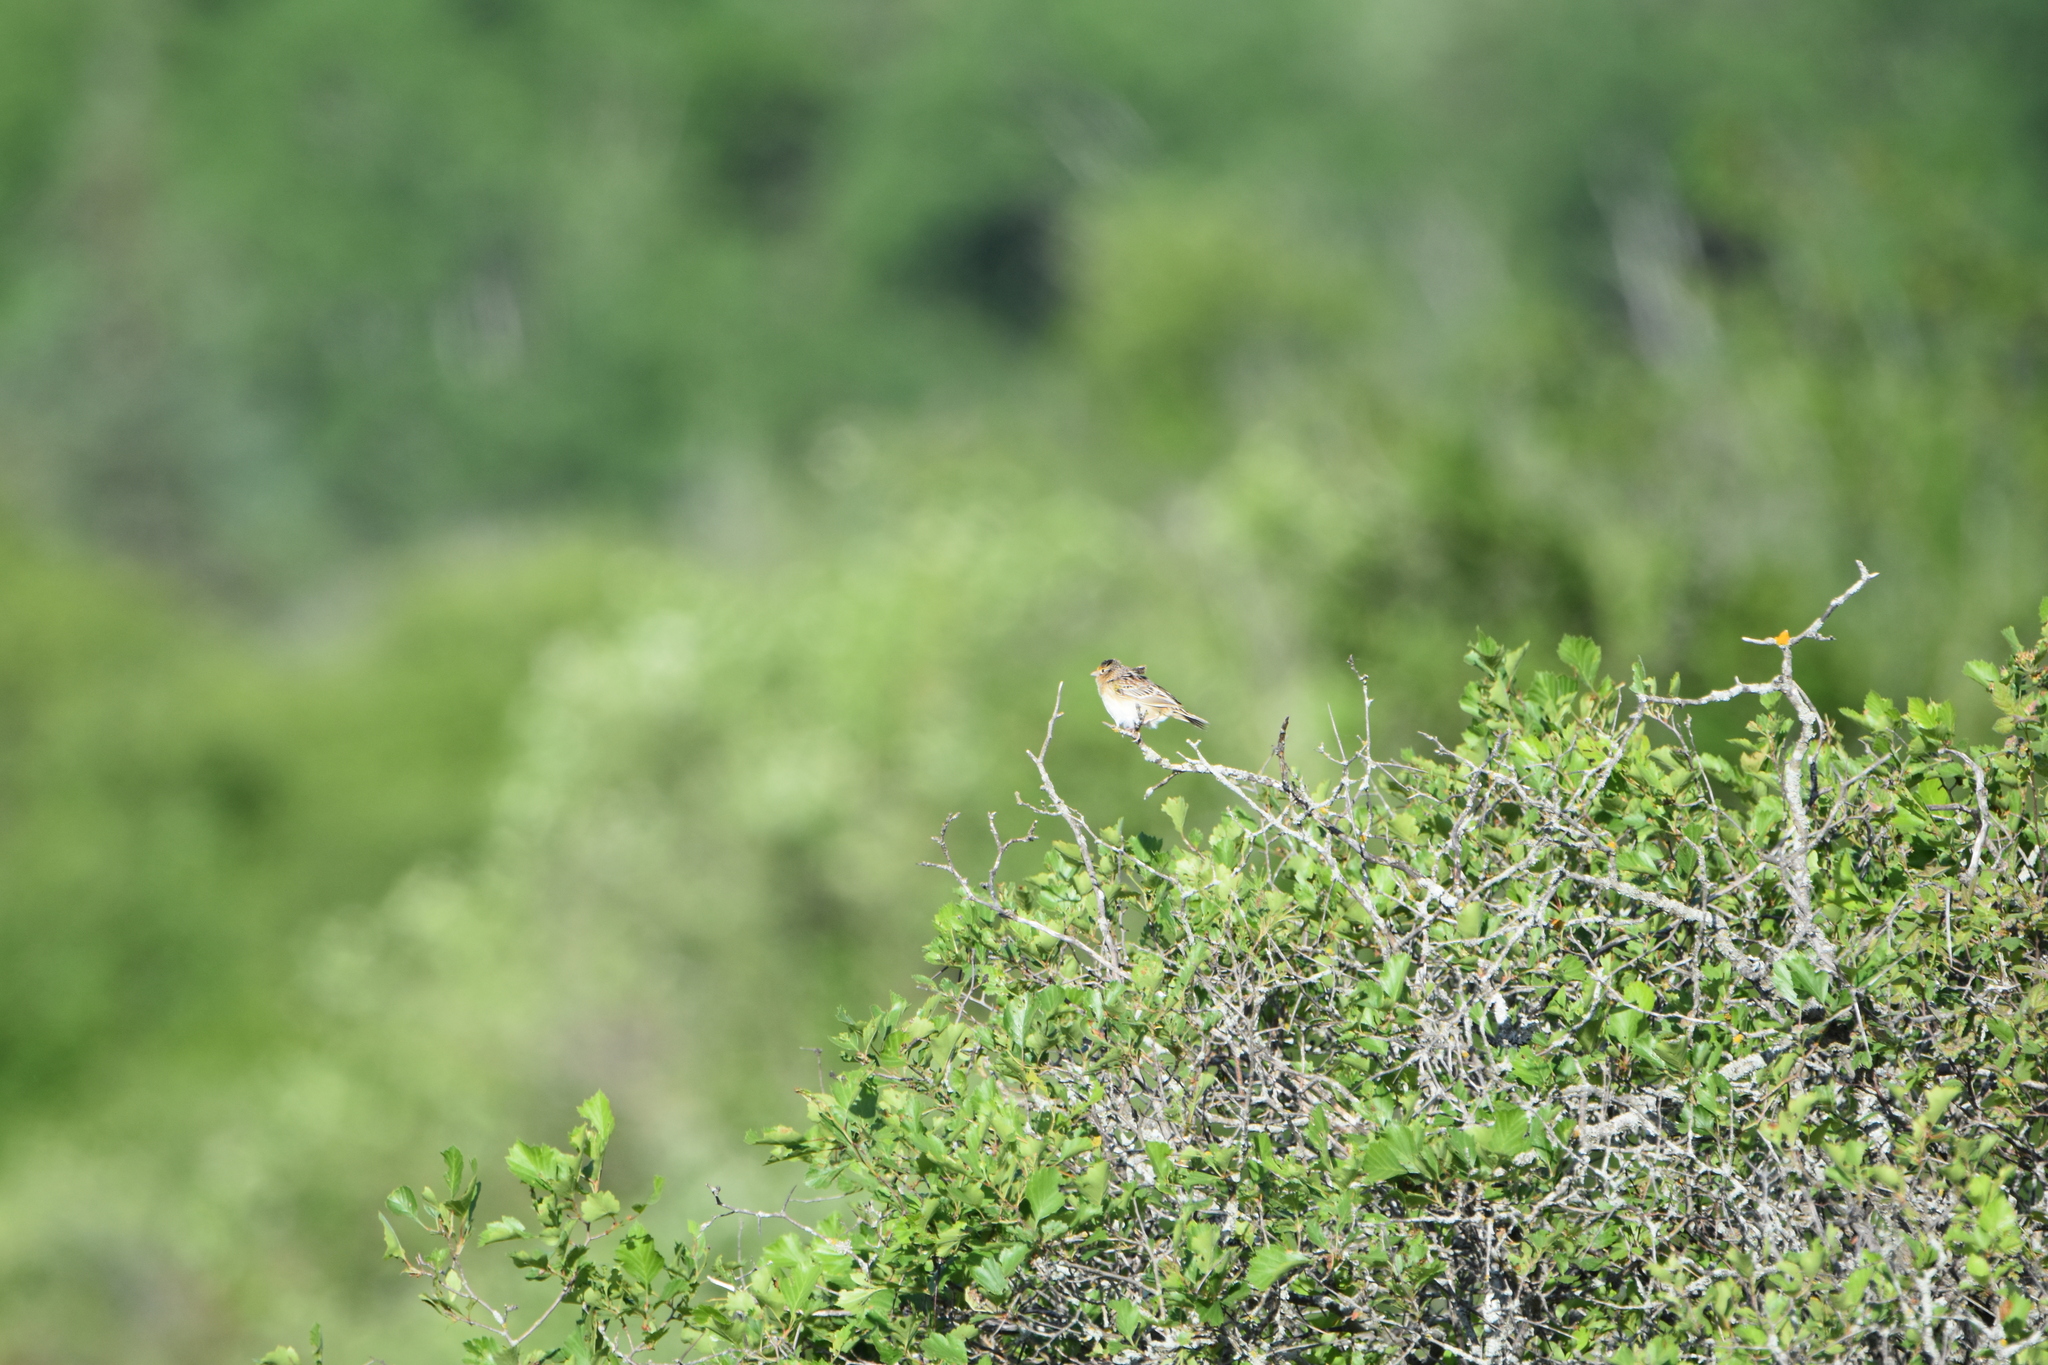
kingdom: Animalia
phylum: Chordata
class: Aves
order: Passeriformes
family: Passerellidae
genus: Ammodramus
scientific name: Ammodramus savannarum
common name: Grasshopper sparrow
